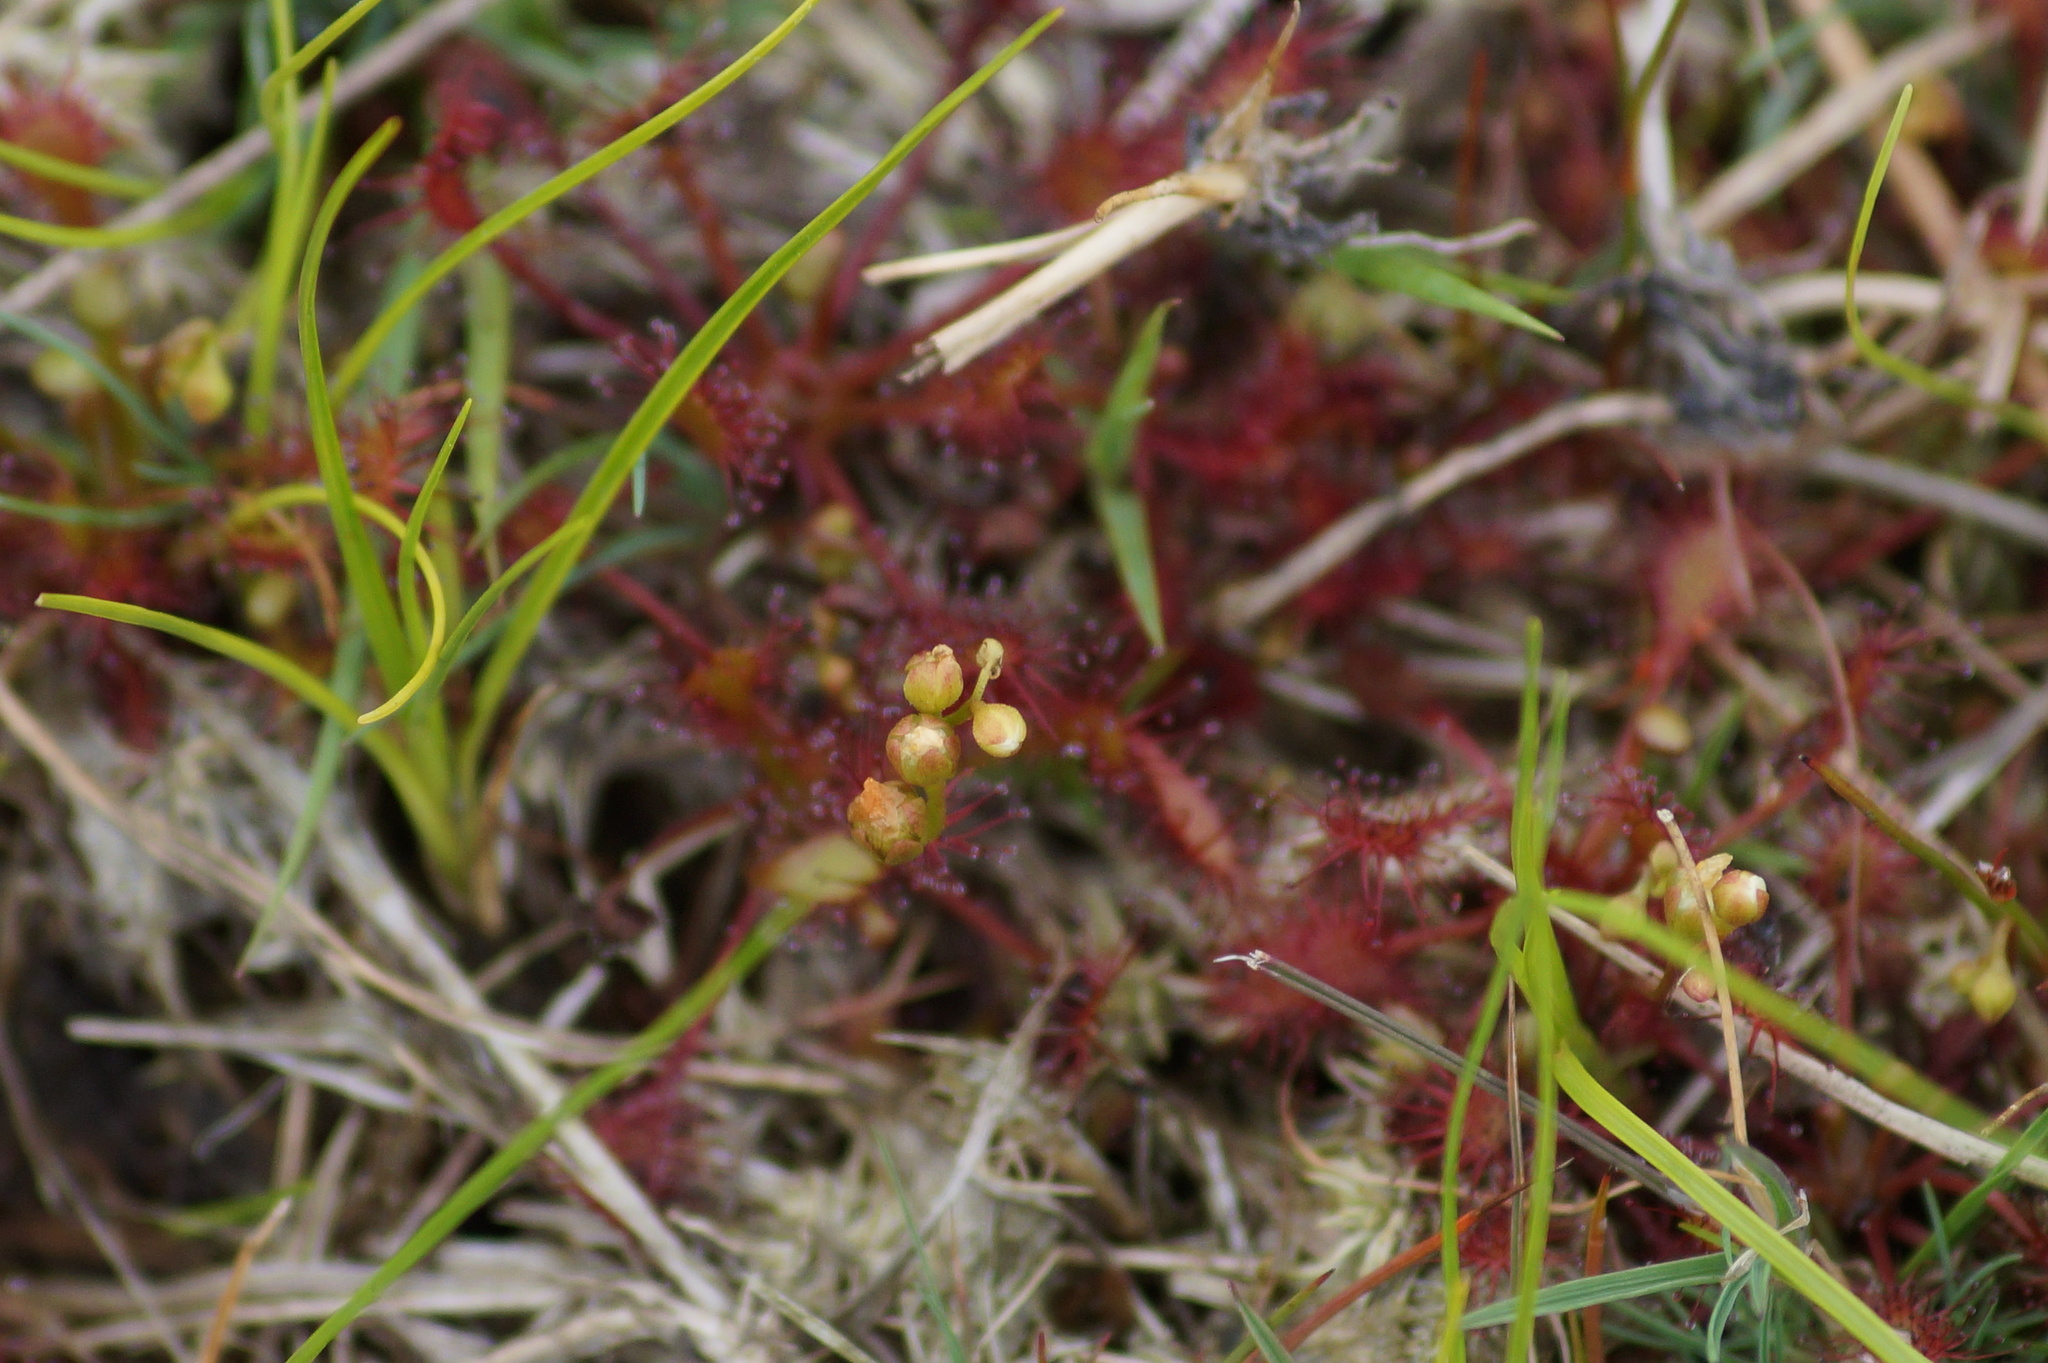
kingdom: Plantae
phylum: Tracheophyta
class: Magnoliopsida
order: Caryophyllales
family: Droseraceae
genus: Drosera
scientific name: Drosera intermedia
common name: Oblong-leaved sundew
